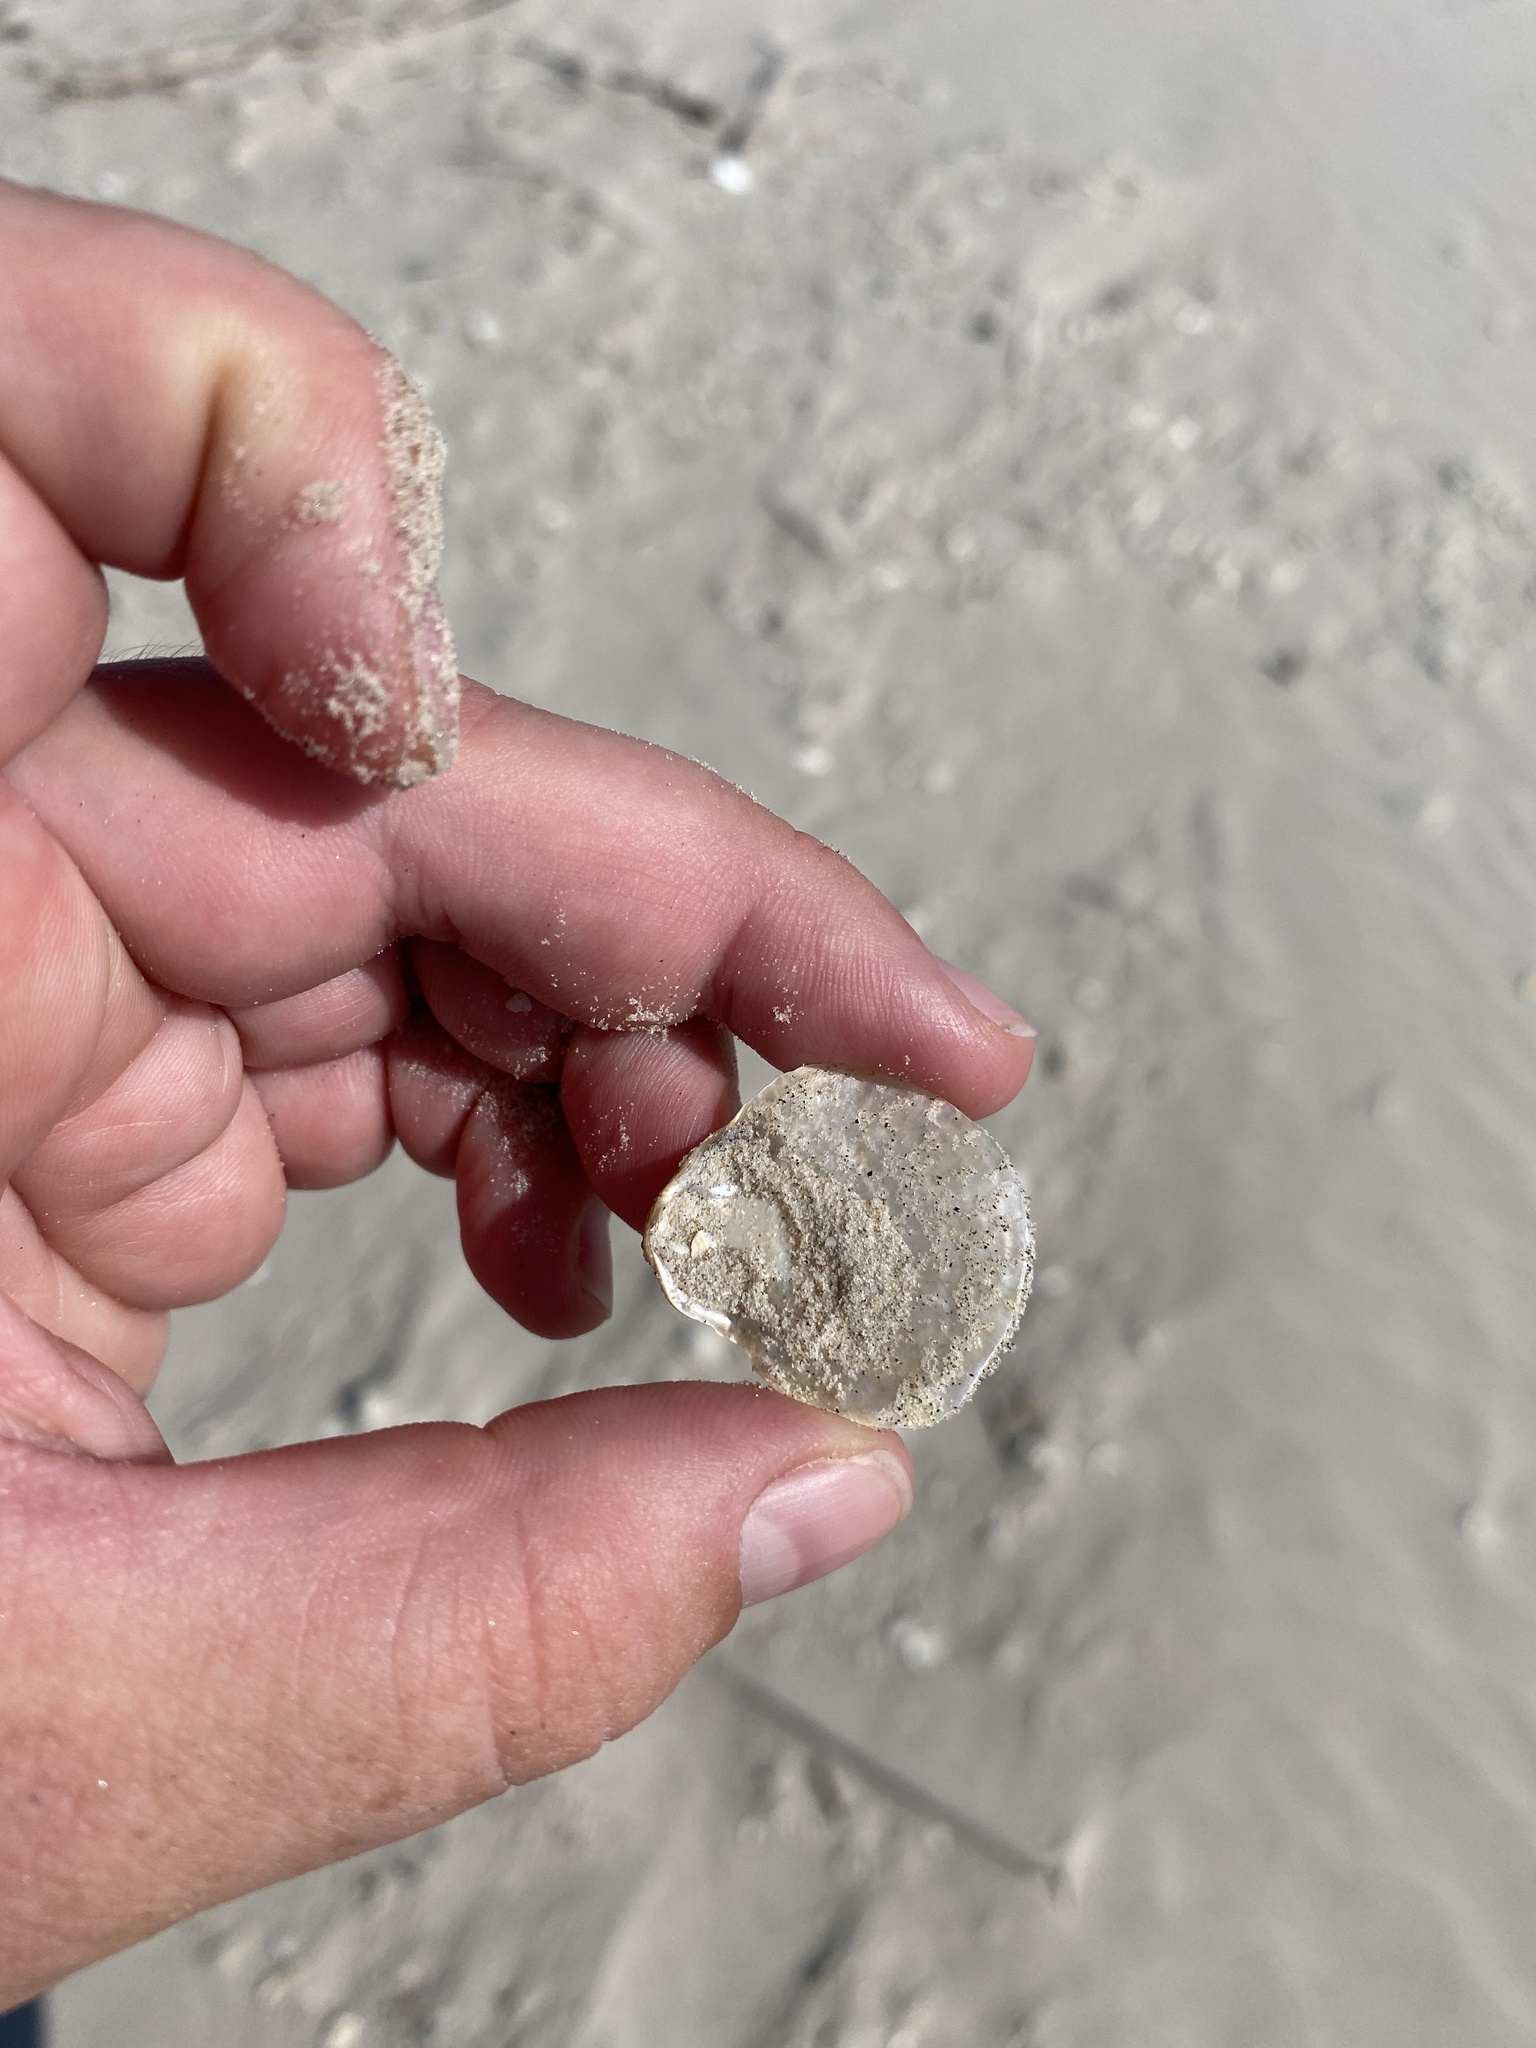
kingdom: Animalia
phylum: Mollusca
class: Bivalvia
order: Pectinida
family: Anomiidae
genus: Anomia
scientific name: Anomia simplex
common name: Common jingle shell
